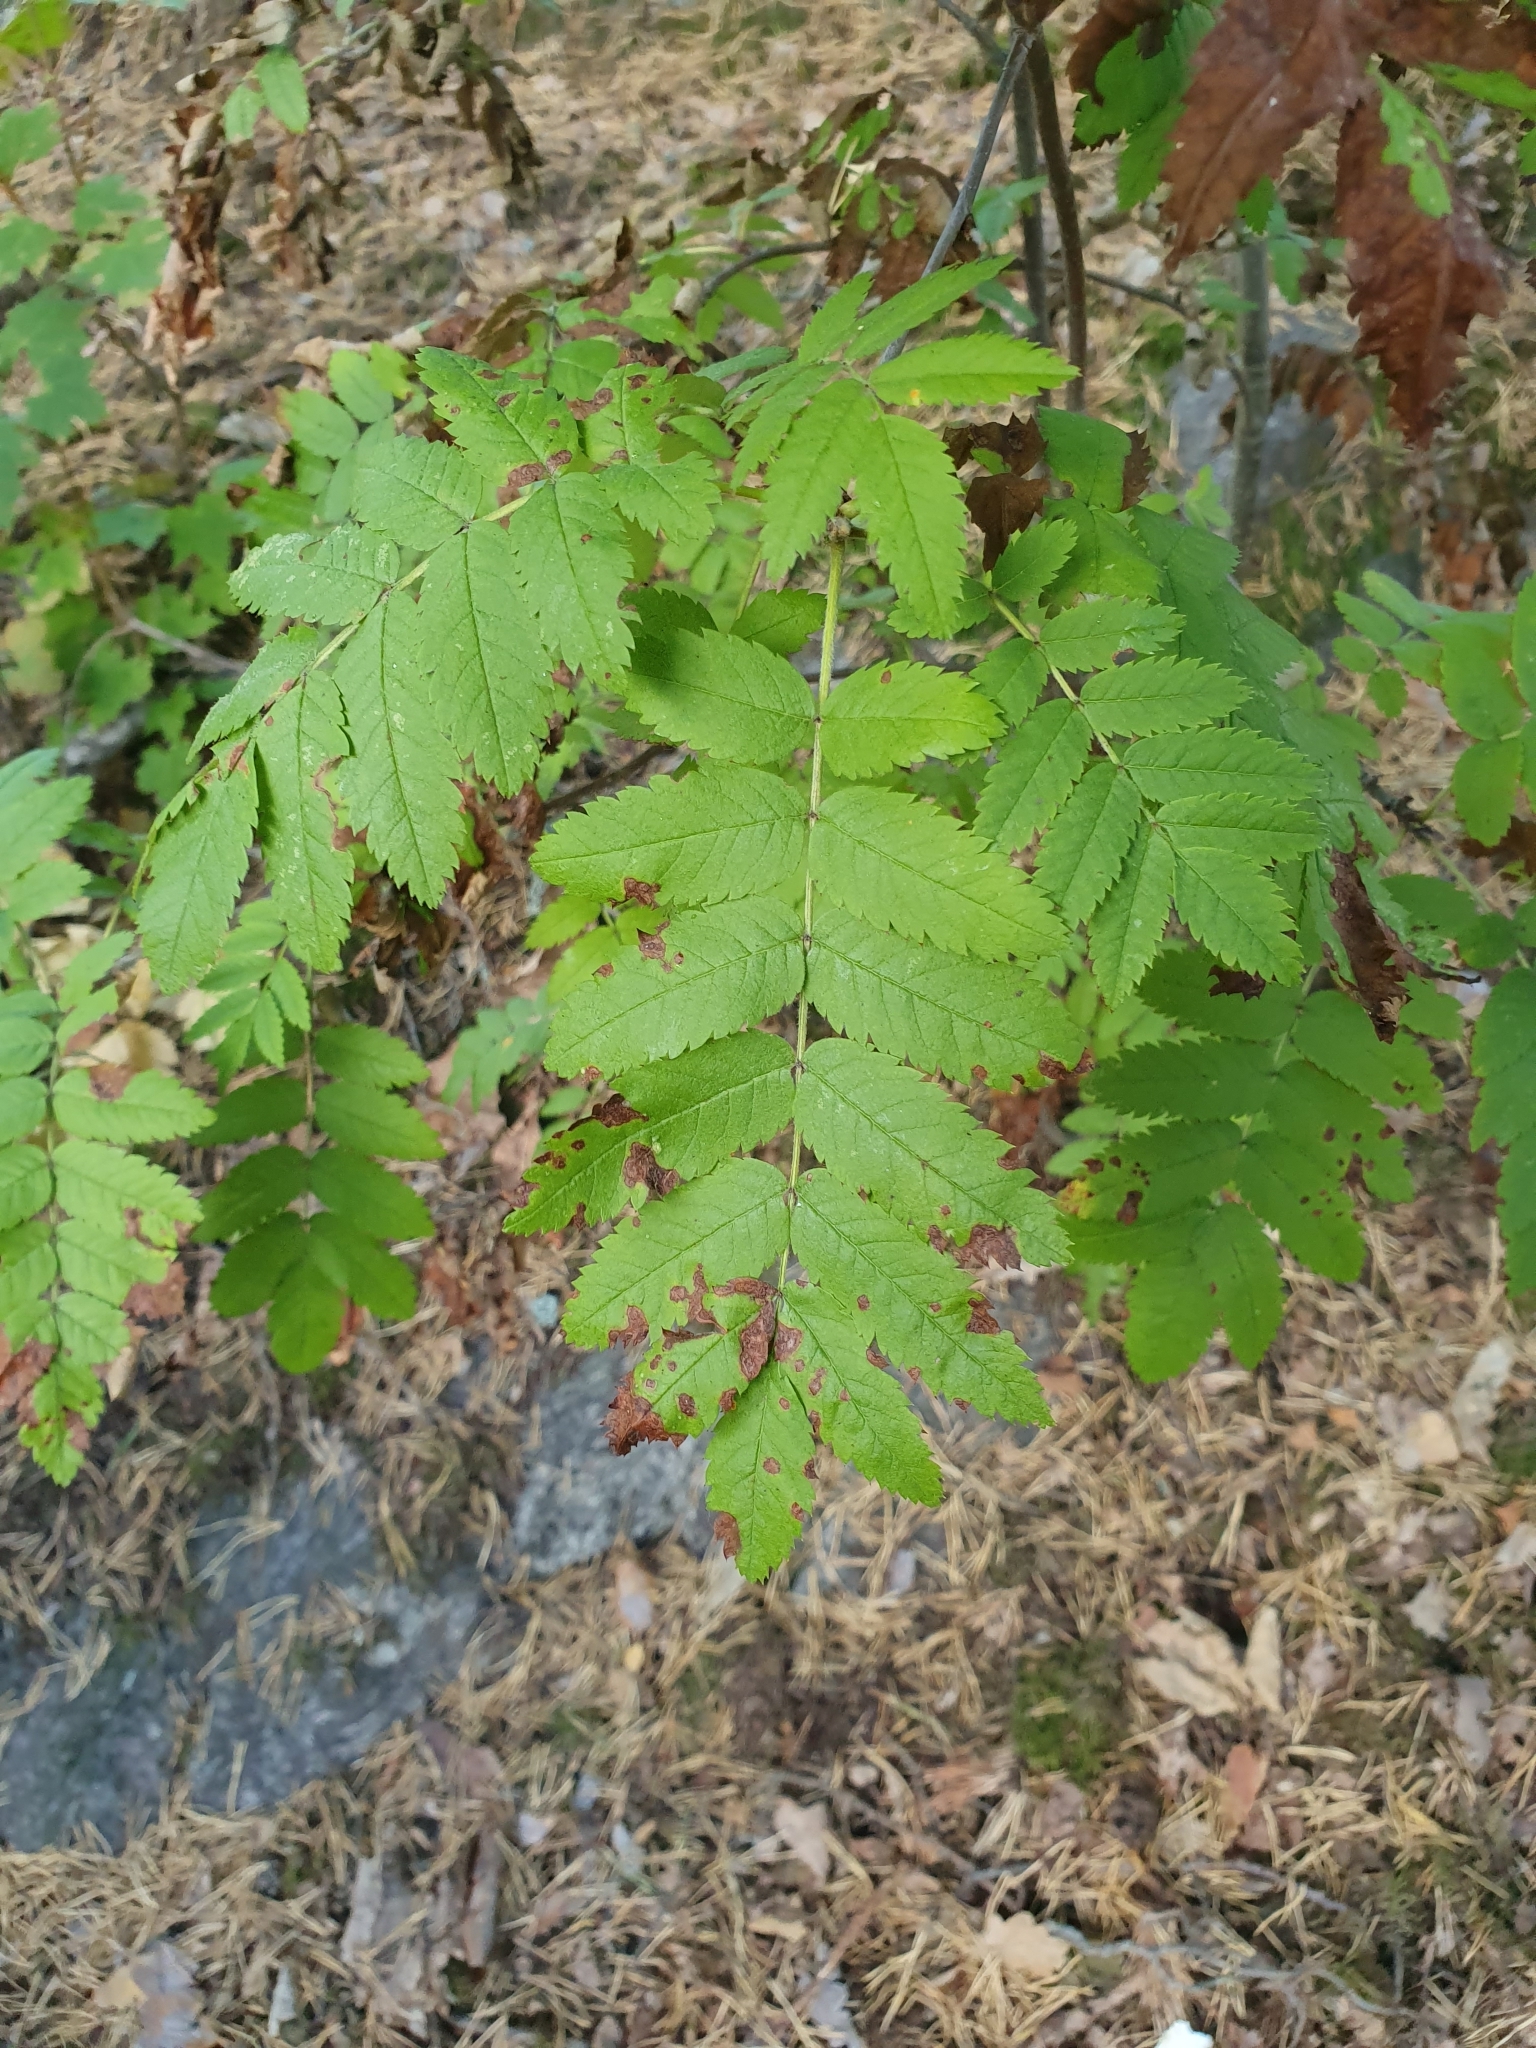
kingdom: Plantae
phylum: Tracheophyta
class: Magnoliopsida
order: Rosales
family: Rosaceae
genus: Sorbus
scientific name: Sorbus aucuparia
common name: Rowan
